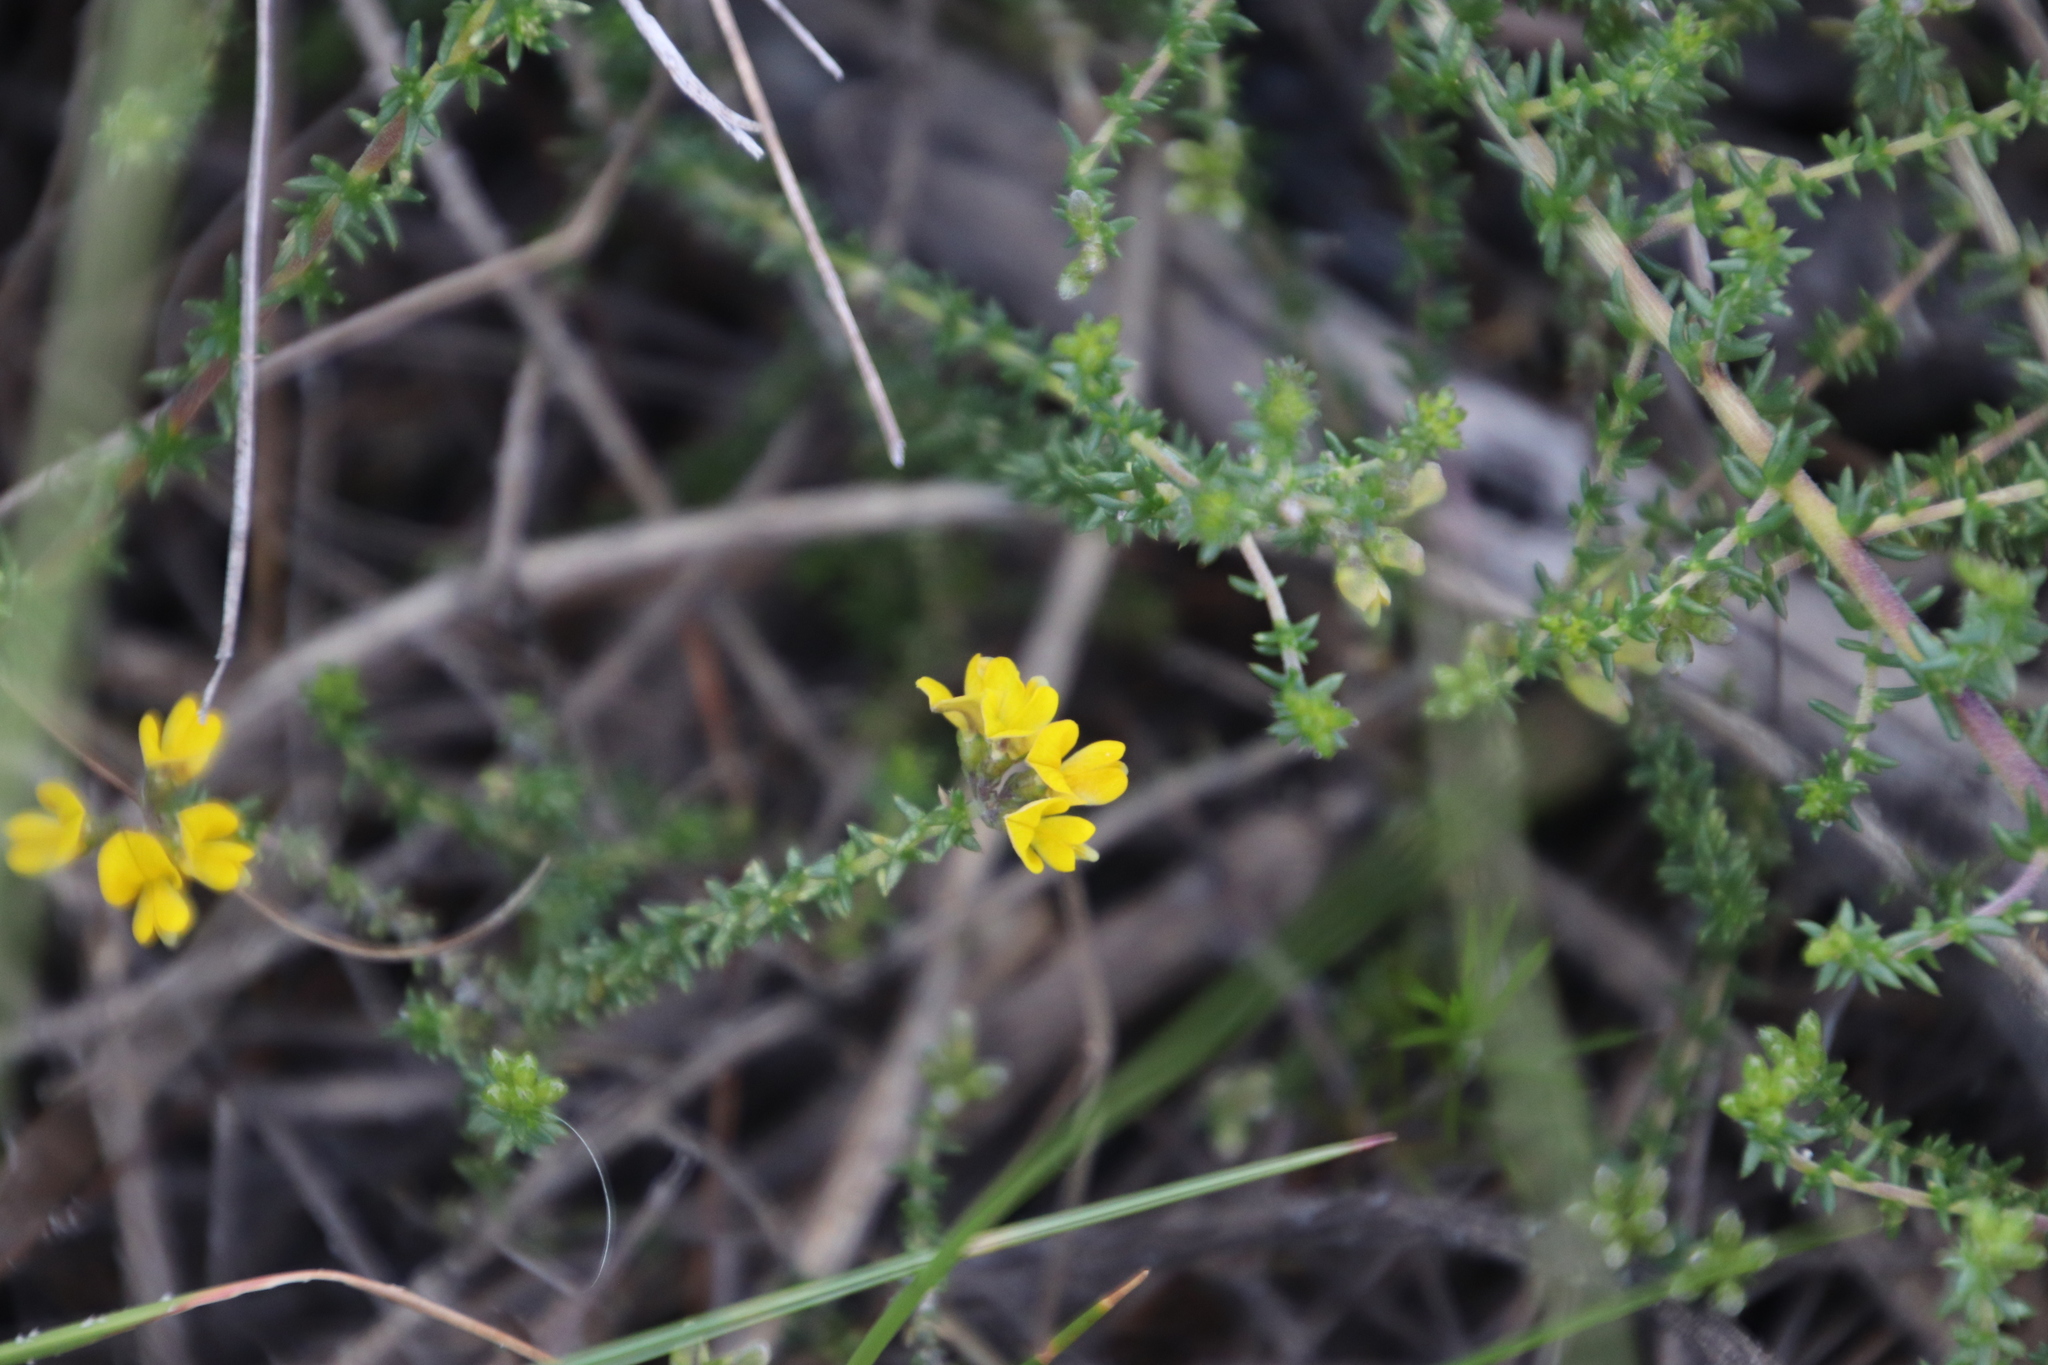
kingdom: Plantae
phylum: Tracheophyta
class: Magnoliopsida
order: Fabales
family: Fabaceae
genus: Aspalathus
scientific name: Aspalathus divaricata
